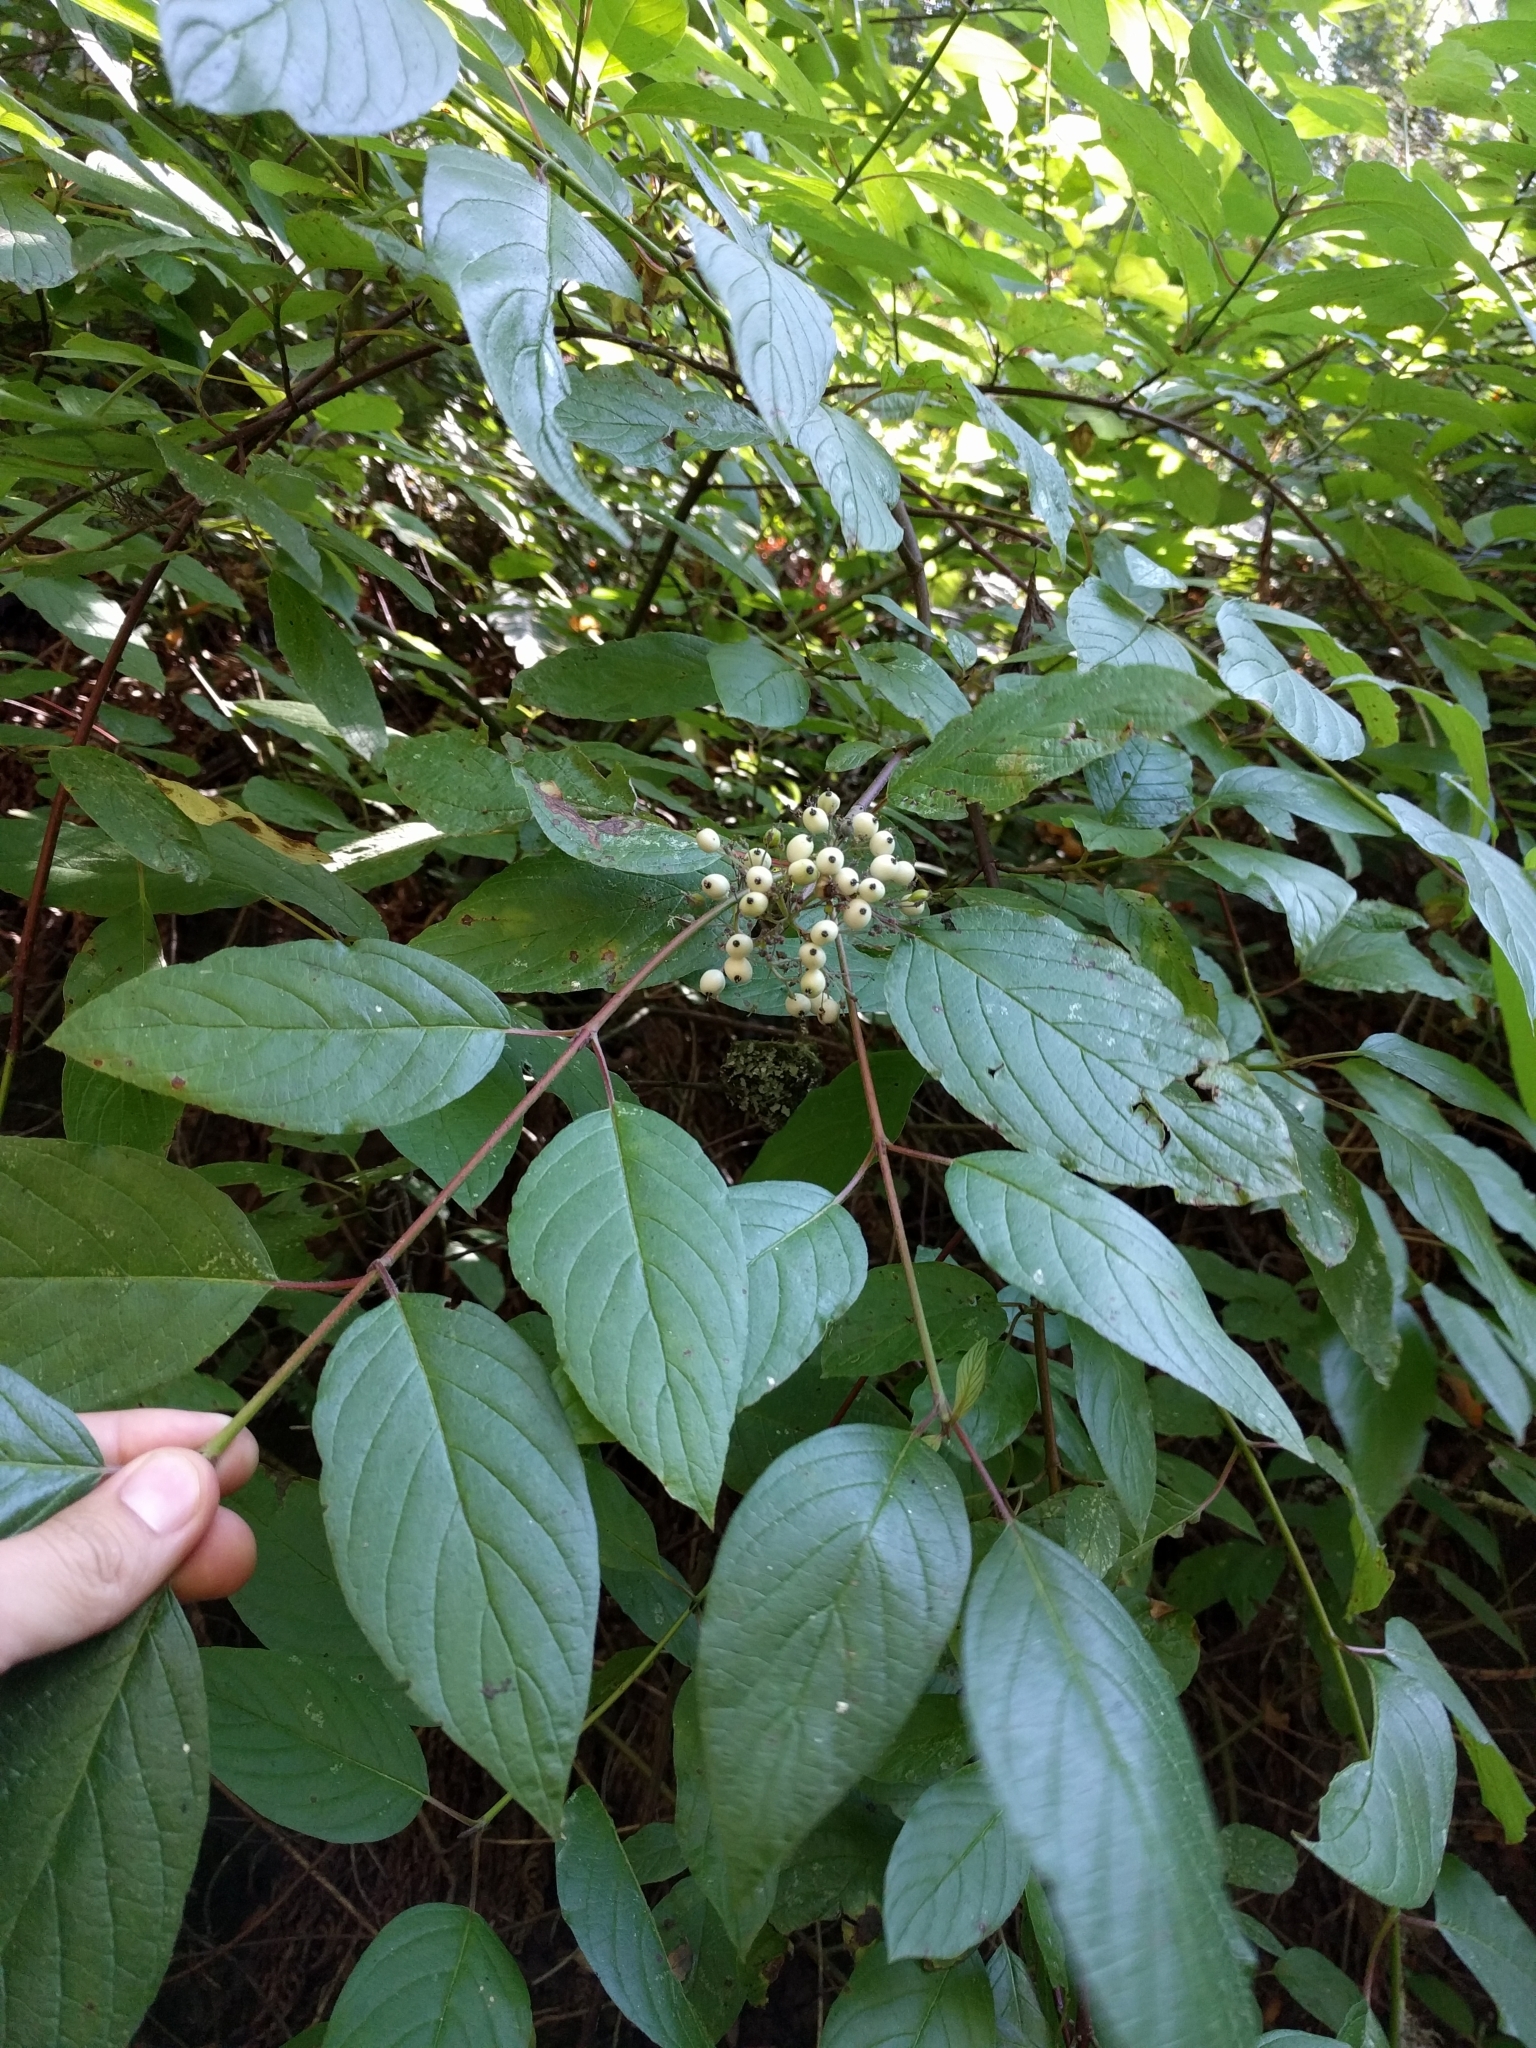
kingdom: Plantae
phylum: Tracheophyta
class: Magnoliopsida
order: Cornales
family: Cornaceae
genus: Cornus
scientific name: Cornus sericea
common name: Red-osier dogwood
